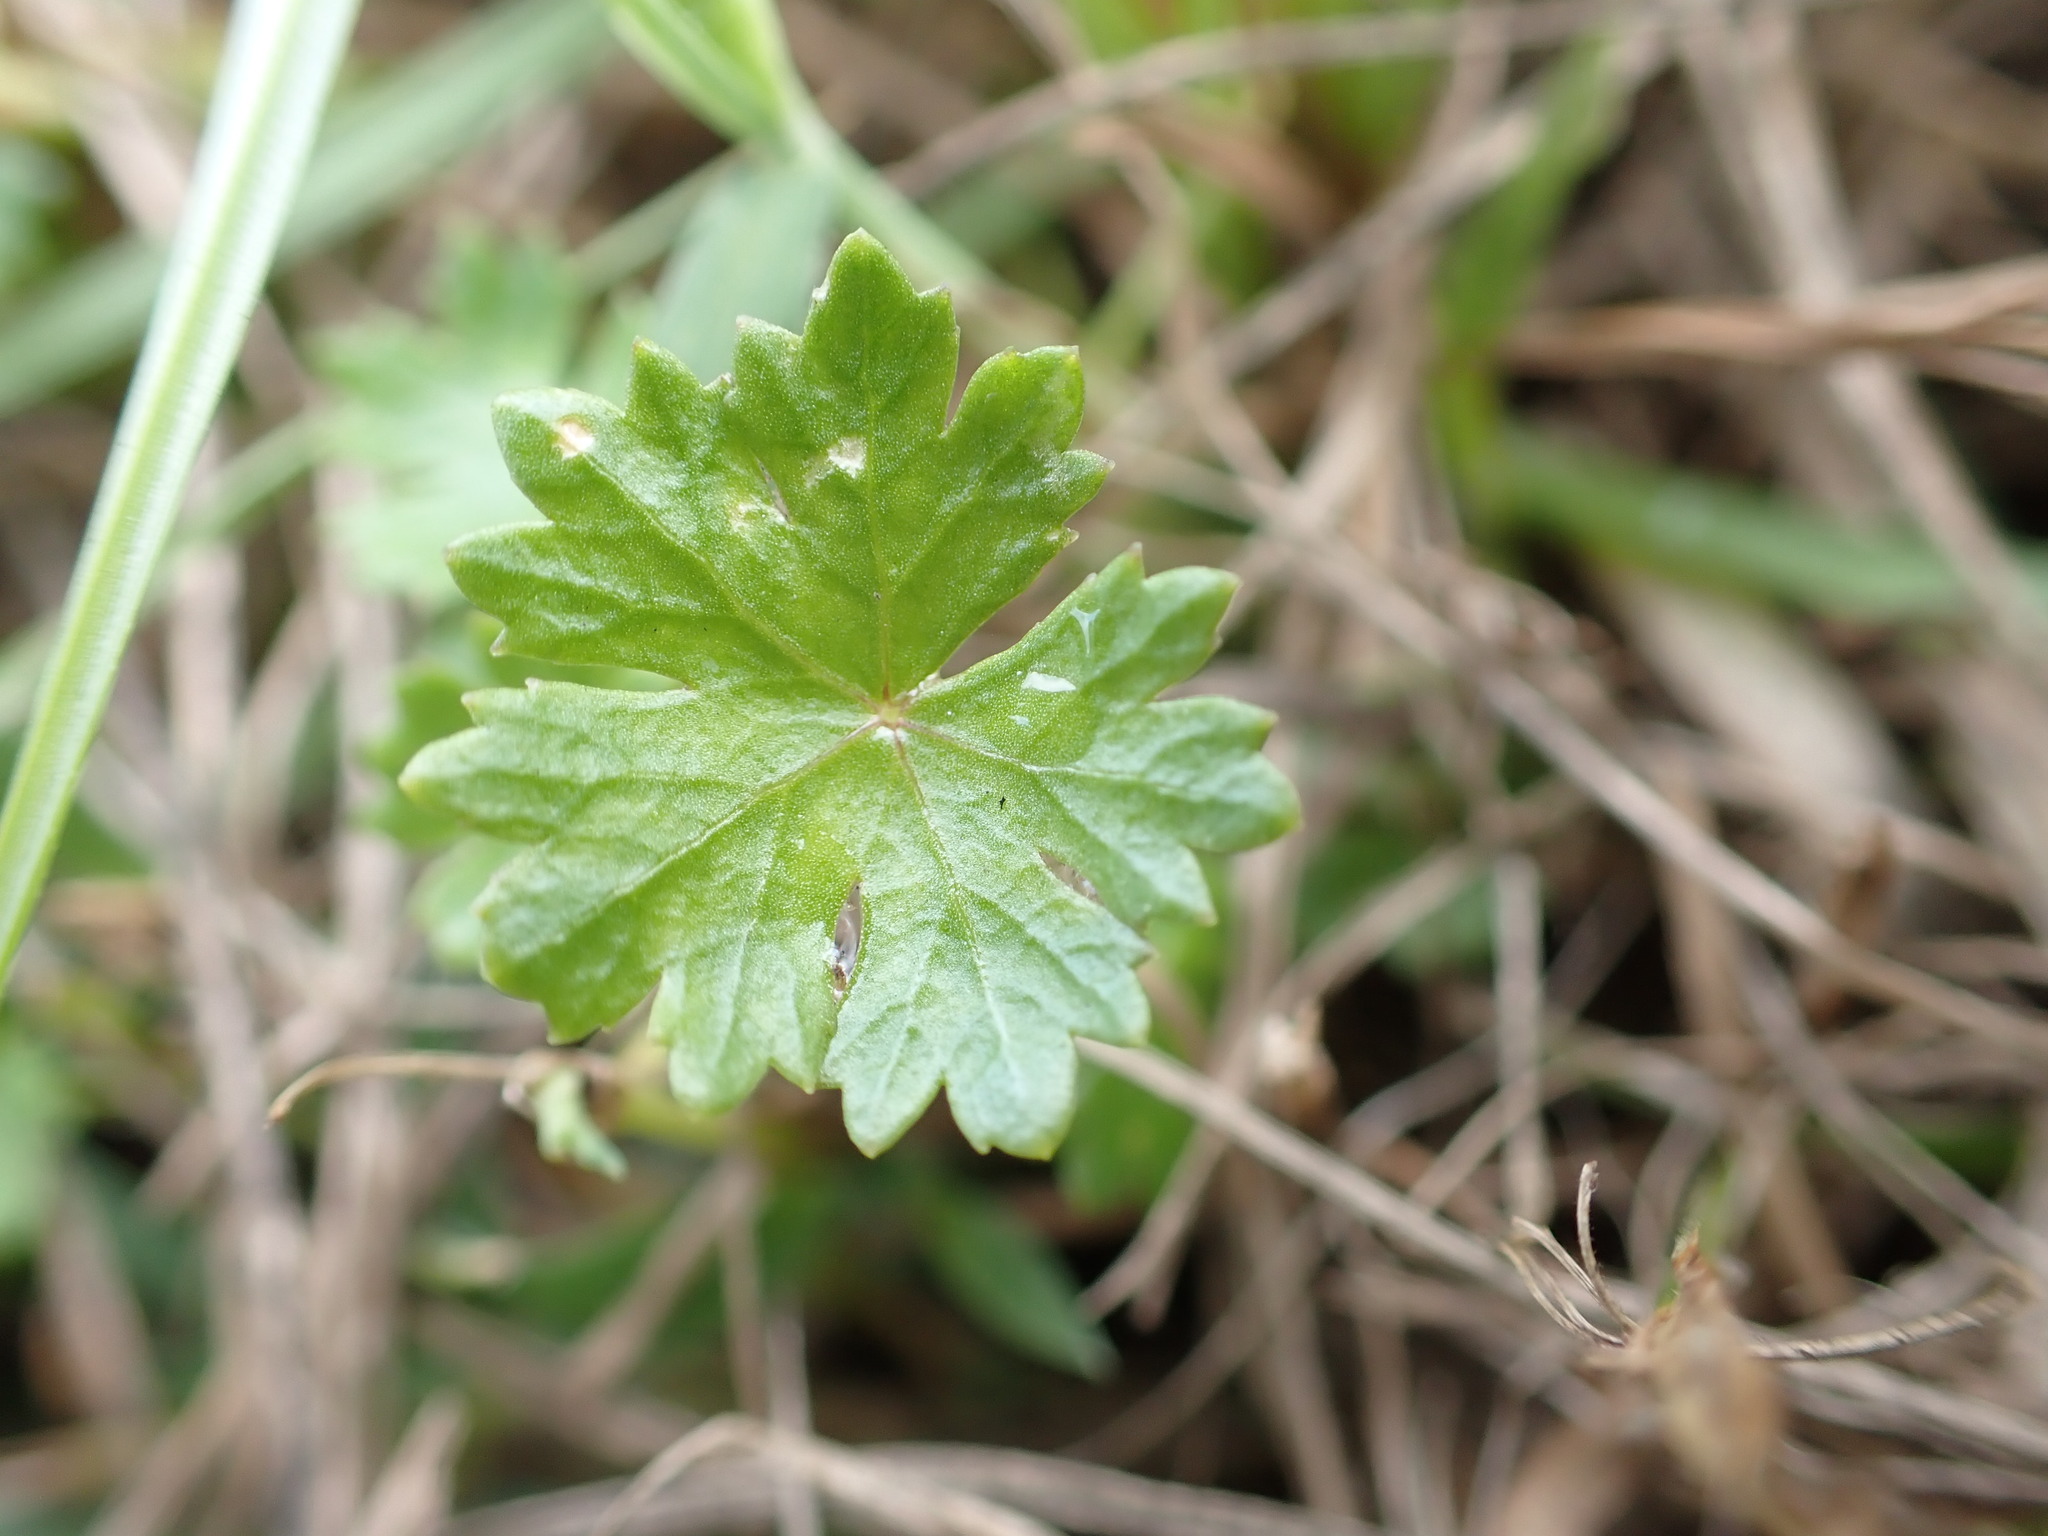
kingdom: Plantae
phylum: Tracheophyta
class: Magnoliopsida
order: Apiales
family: Araliaceae
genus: Hydrocotyle
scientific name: Hydrocotyle batrachium
